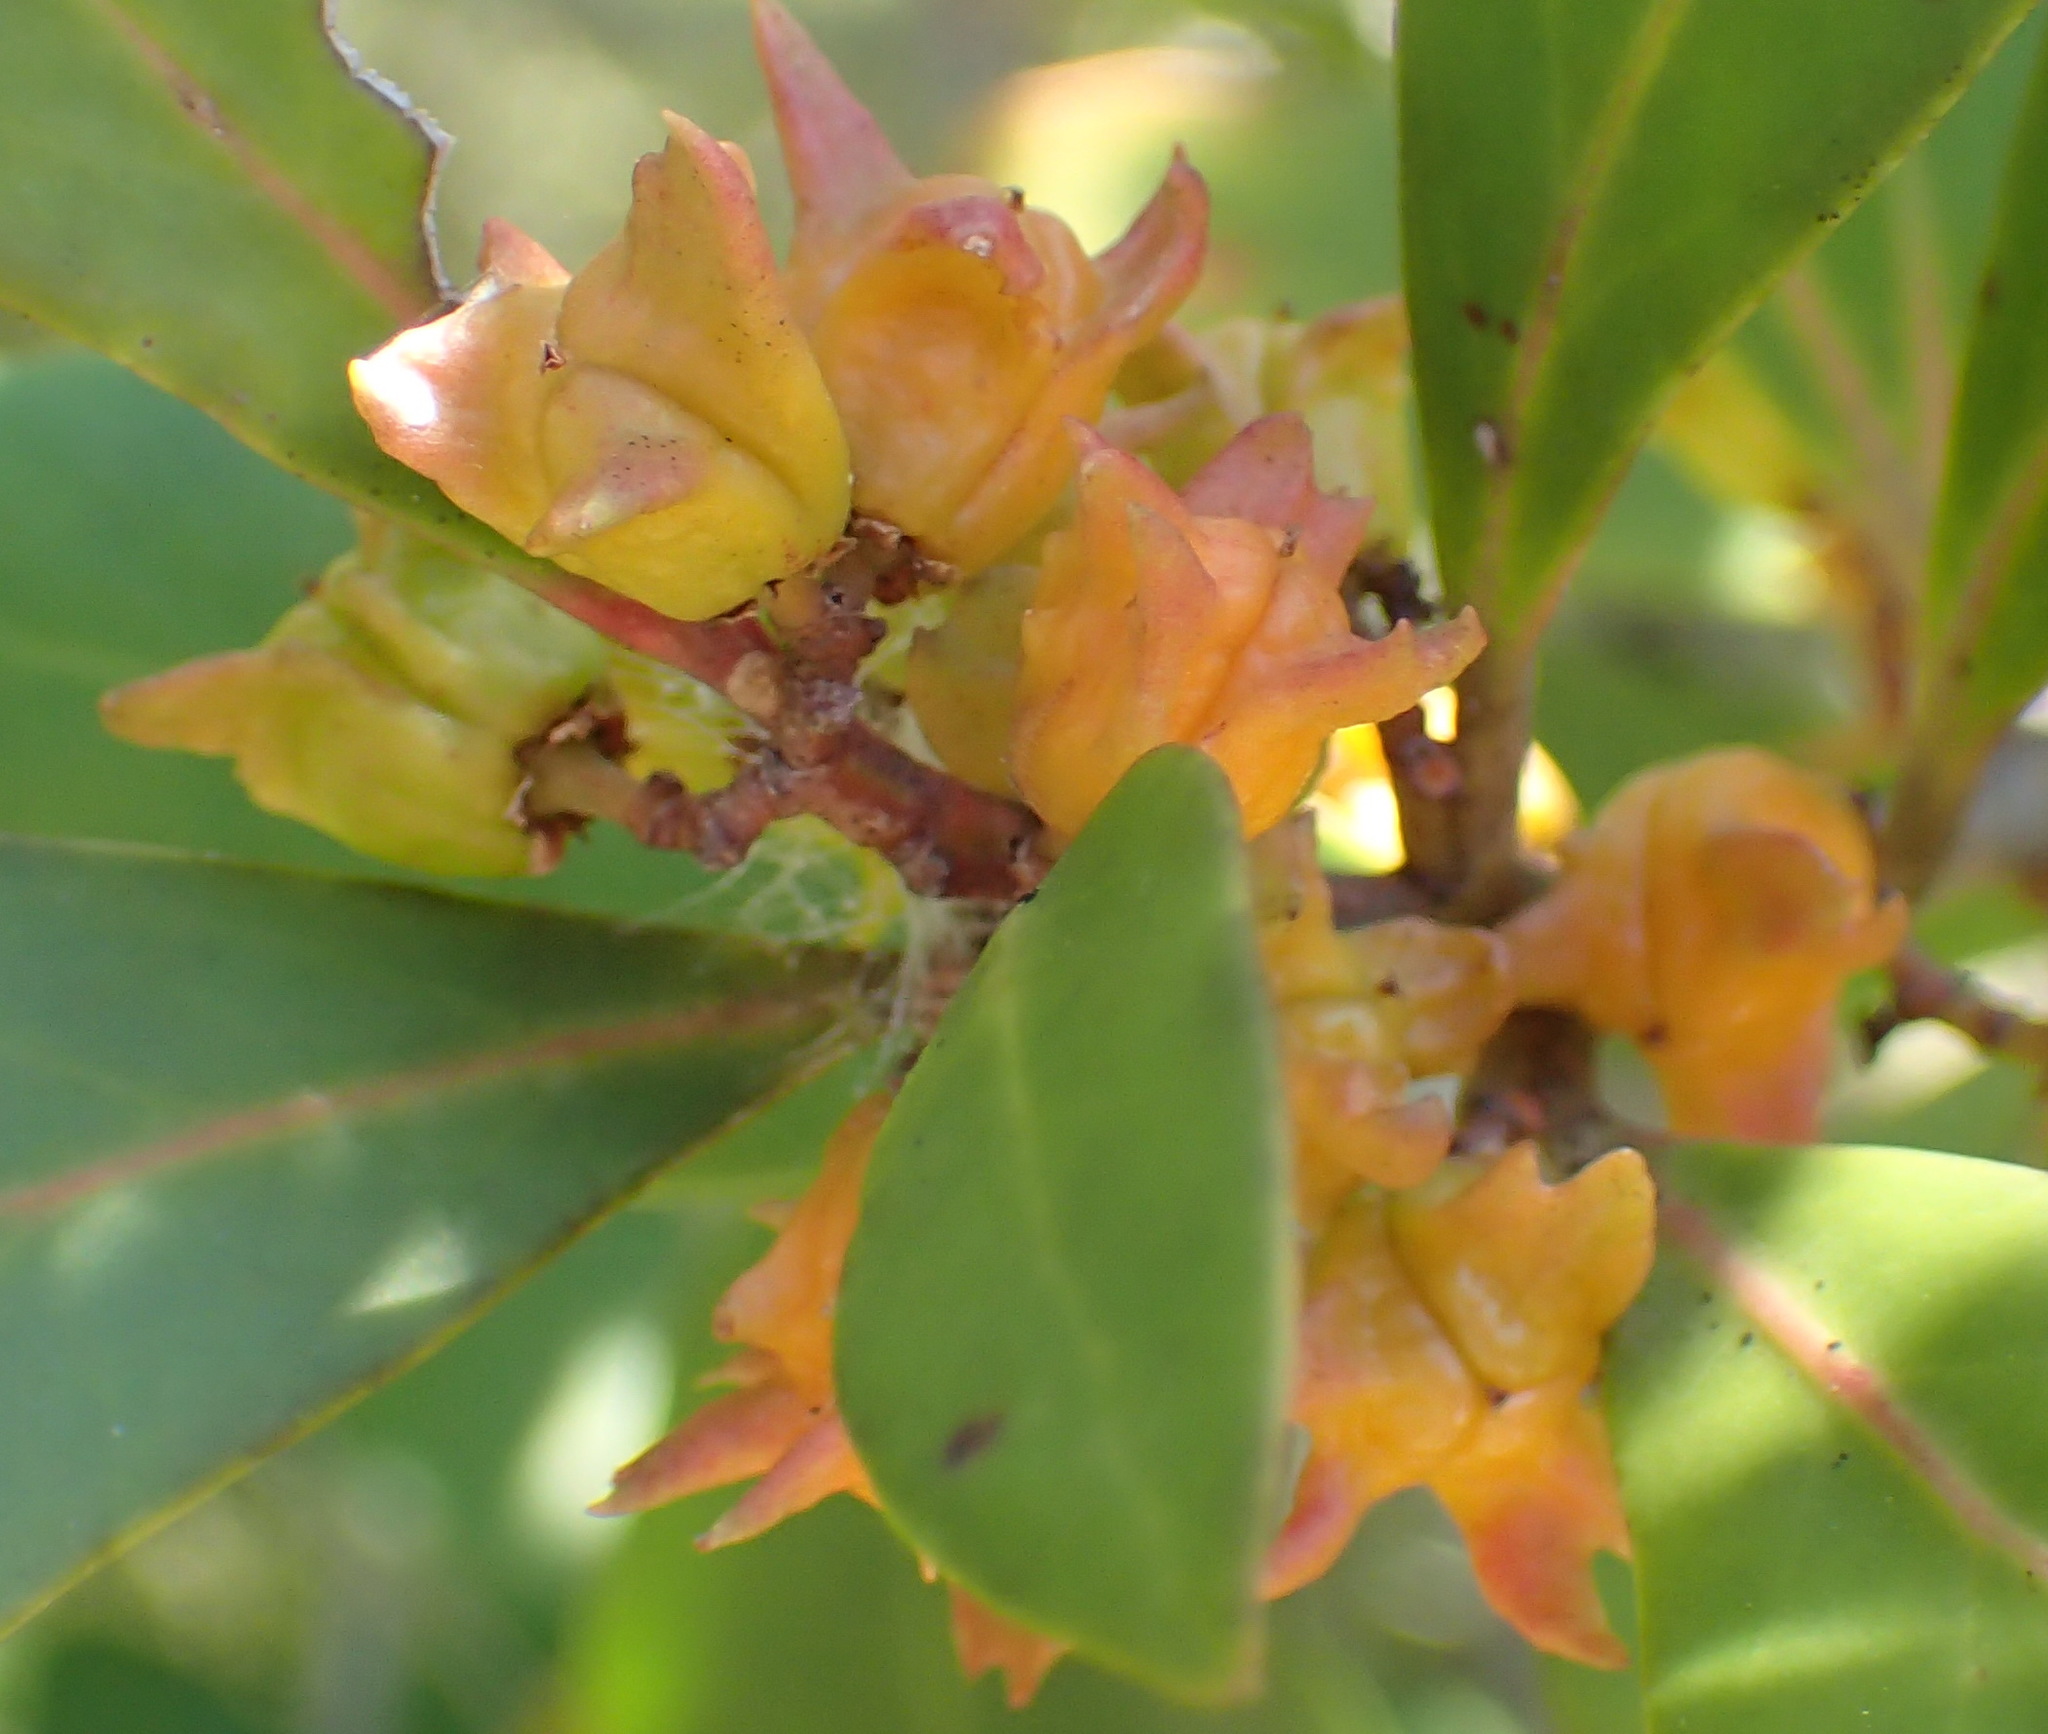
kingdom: Plantae
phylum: Tracheophyta
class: Magnoliopsida
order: Celastrales
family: Celastraceae
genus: Pterocelastrus
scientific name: Pterocelastrus tricuspidatus
